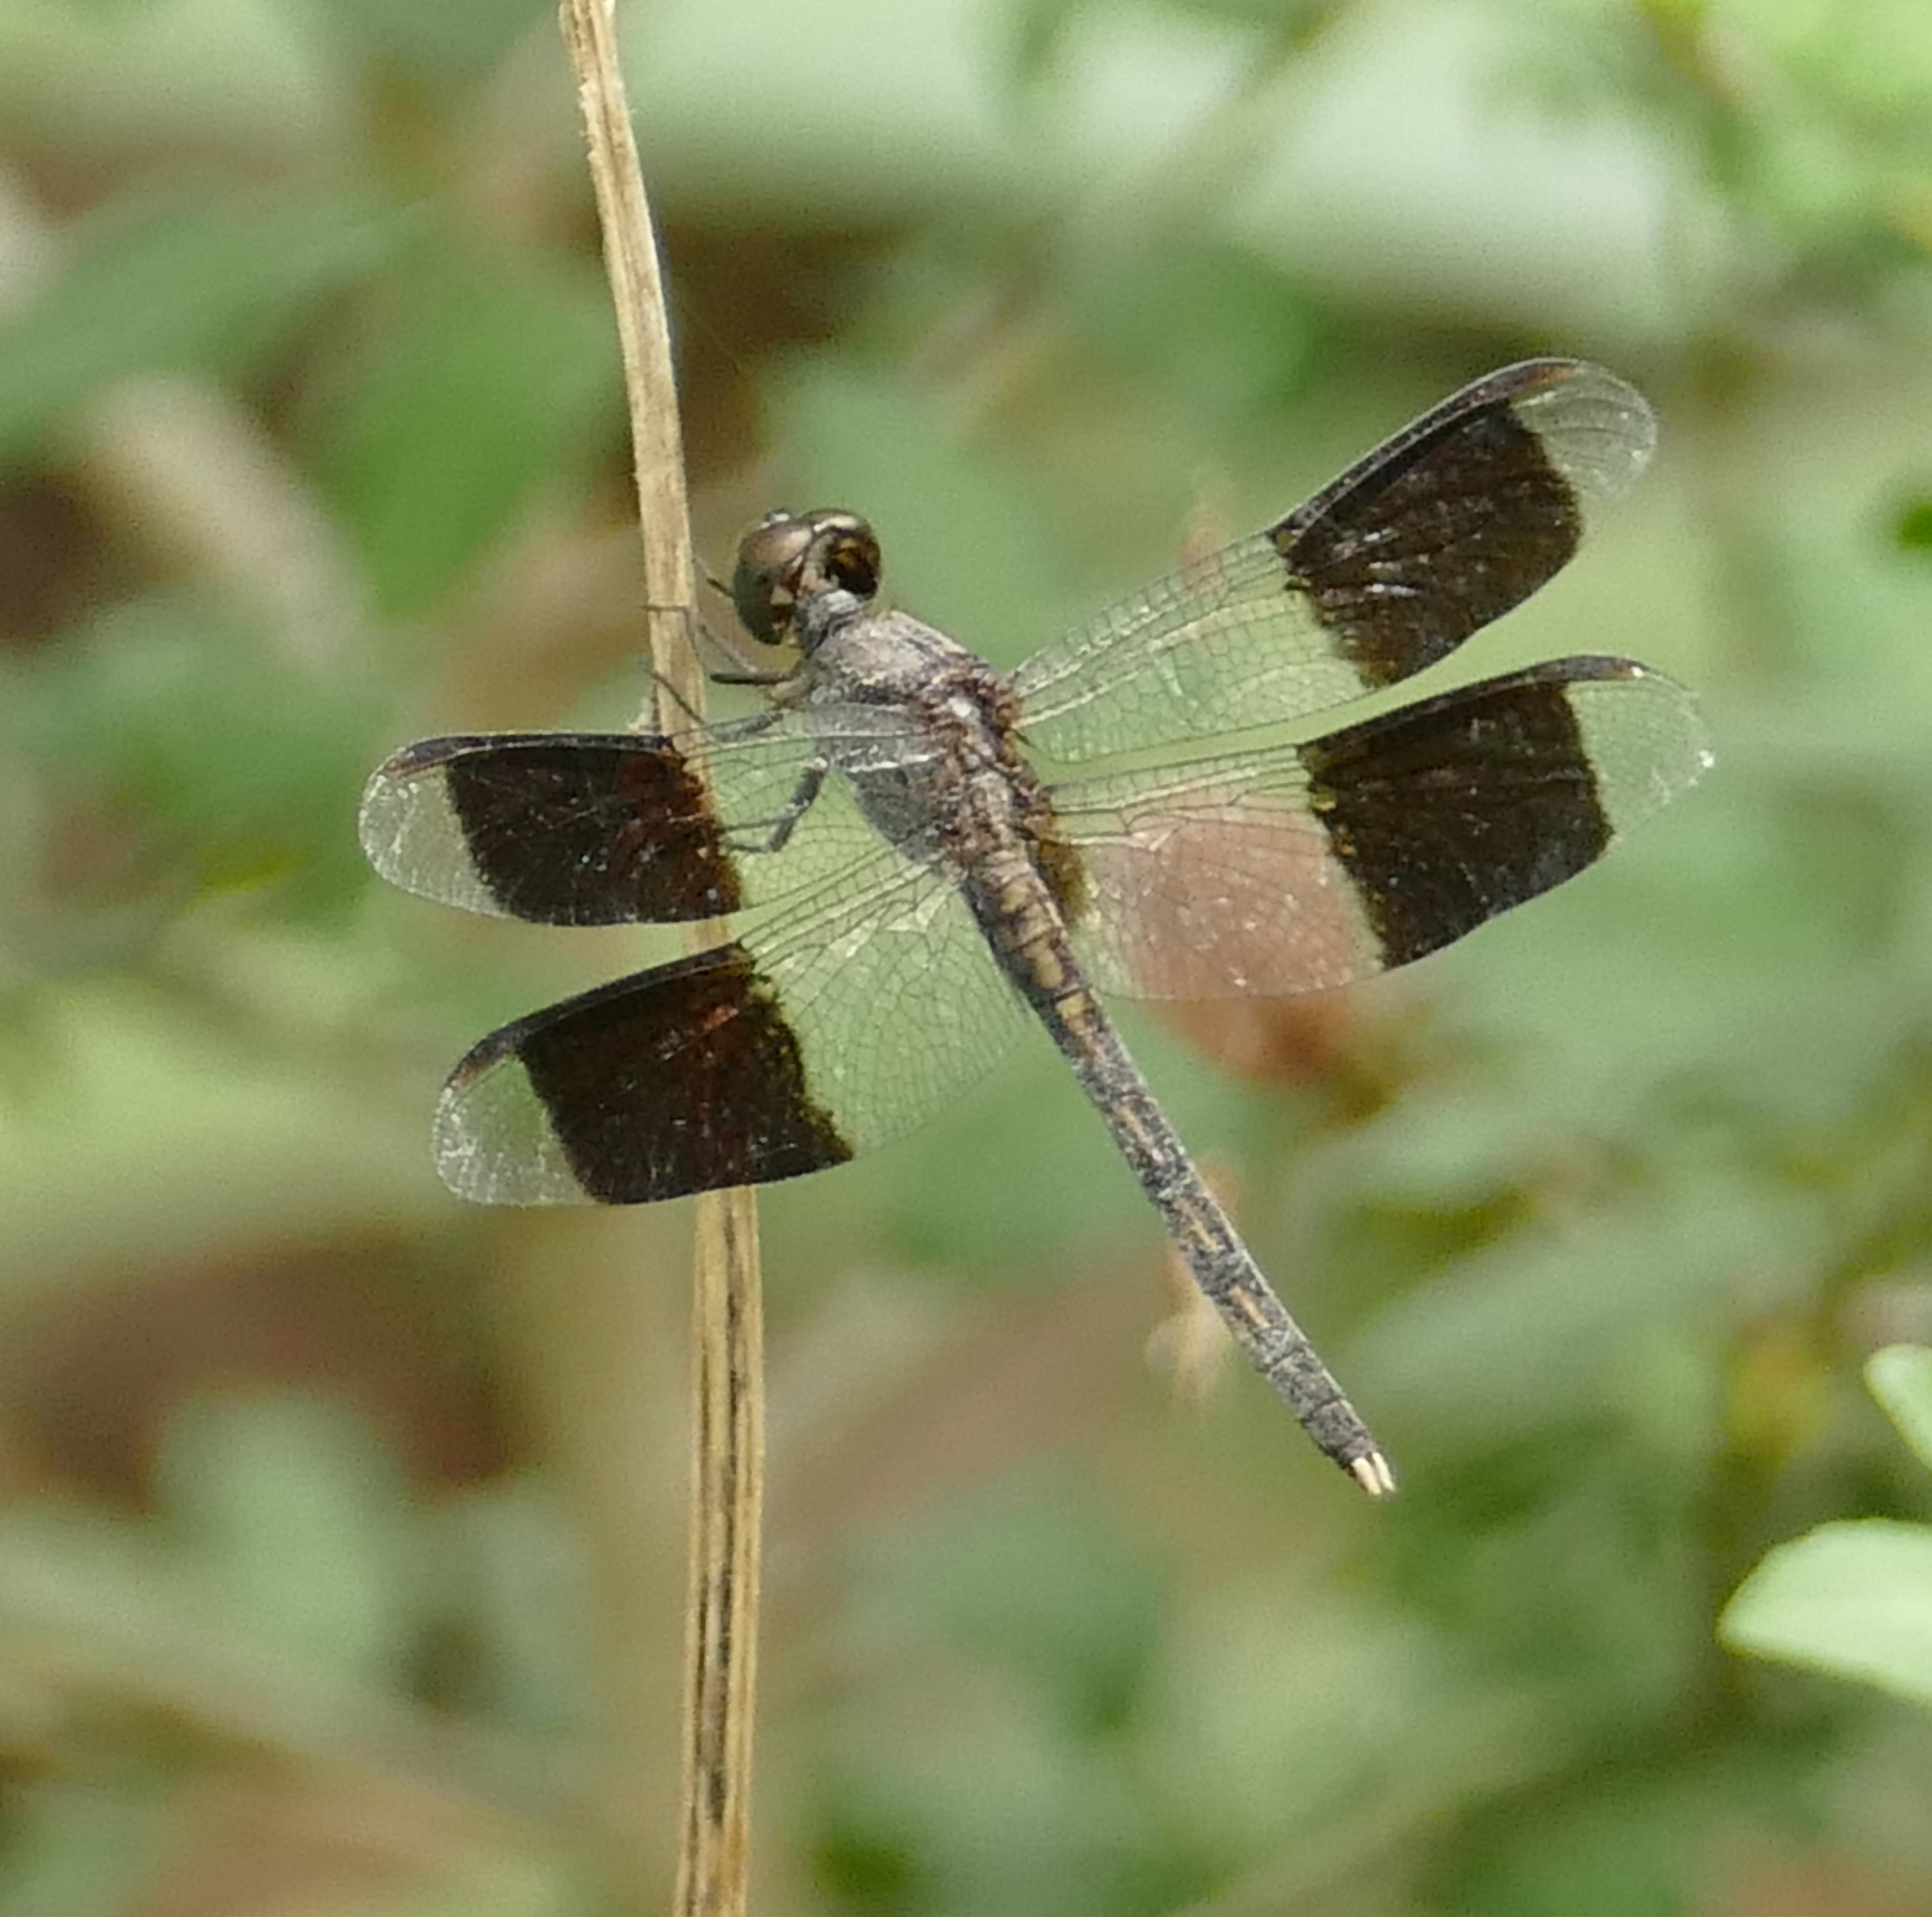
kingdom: Animalia
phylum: Arthropoda
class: Insecta
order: Odonata
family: Libellulidae
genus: Erythrodiplax
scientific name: Erythrodiplax umbrata
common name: Band-winged dragonlet
